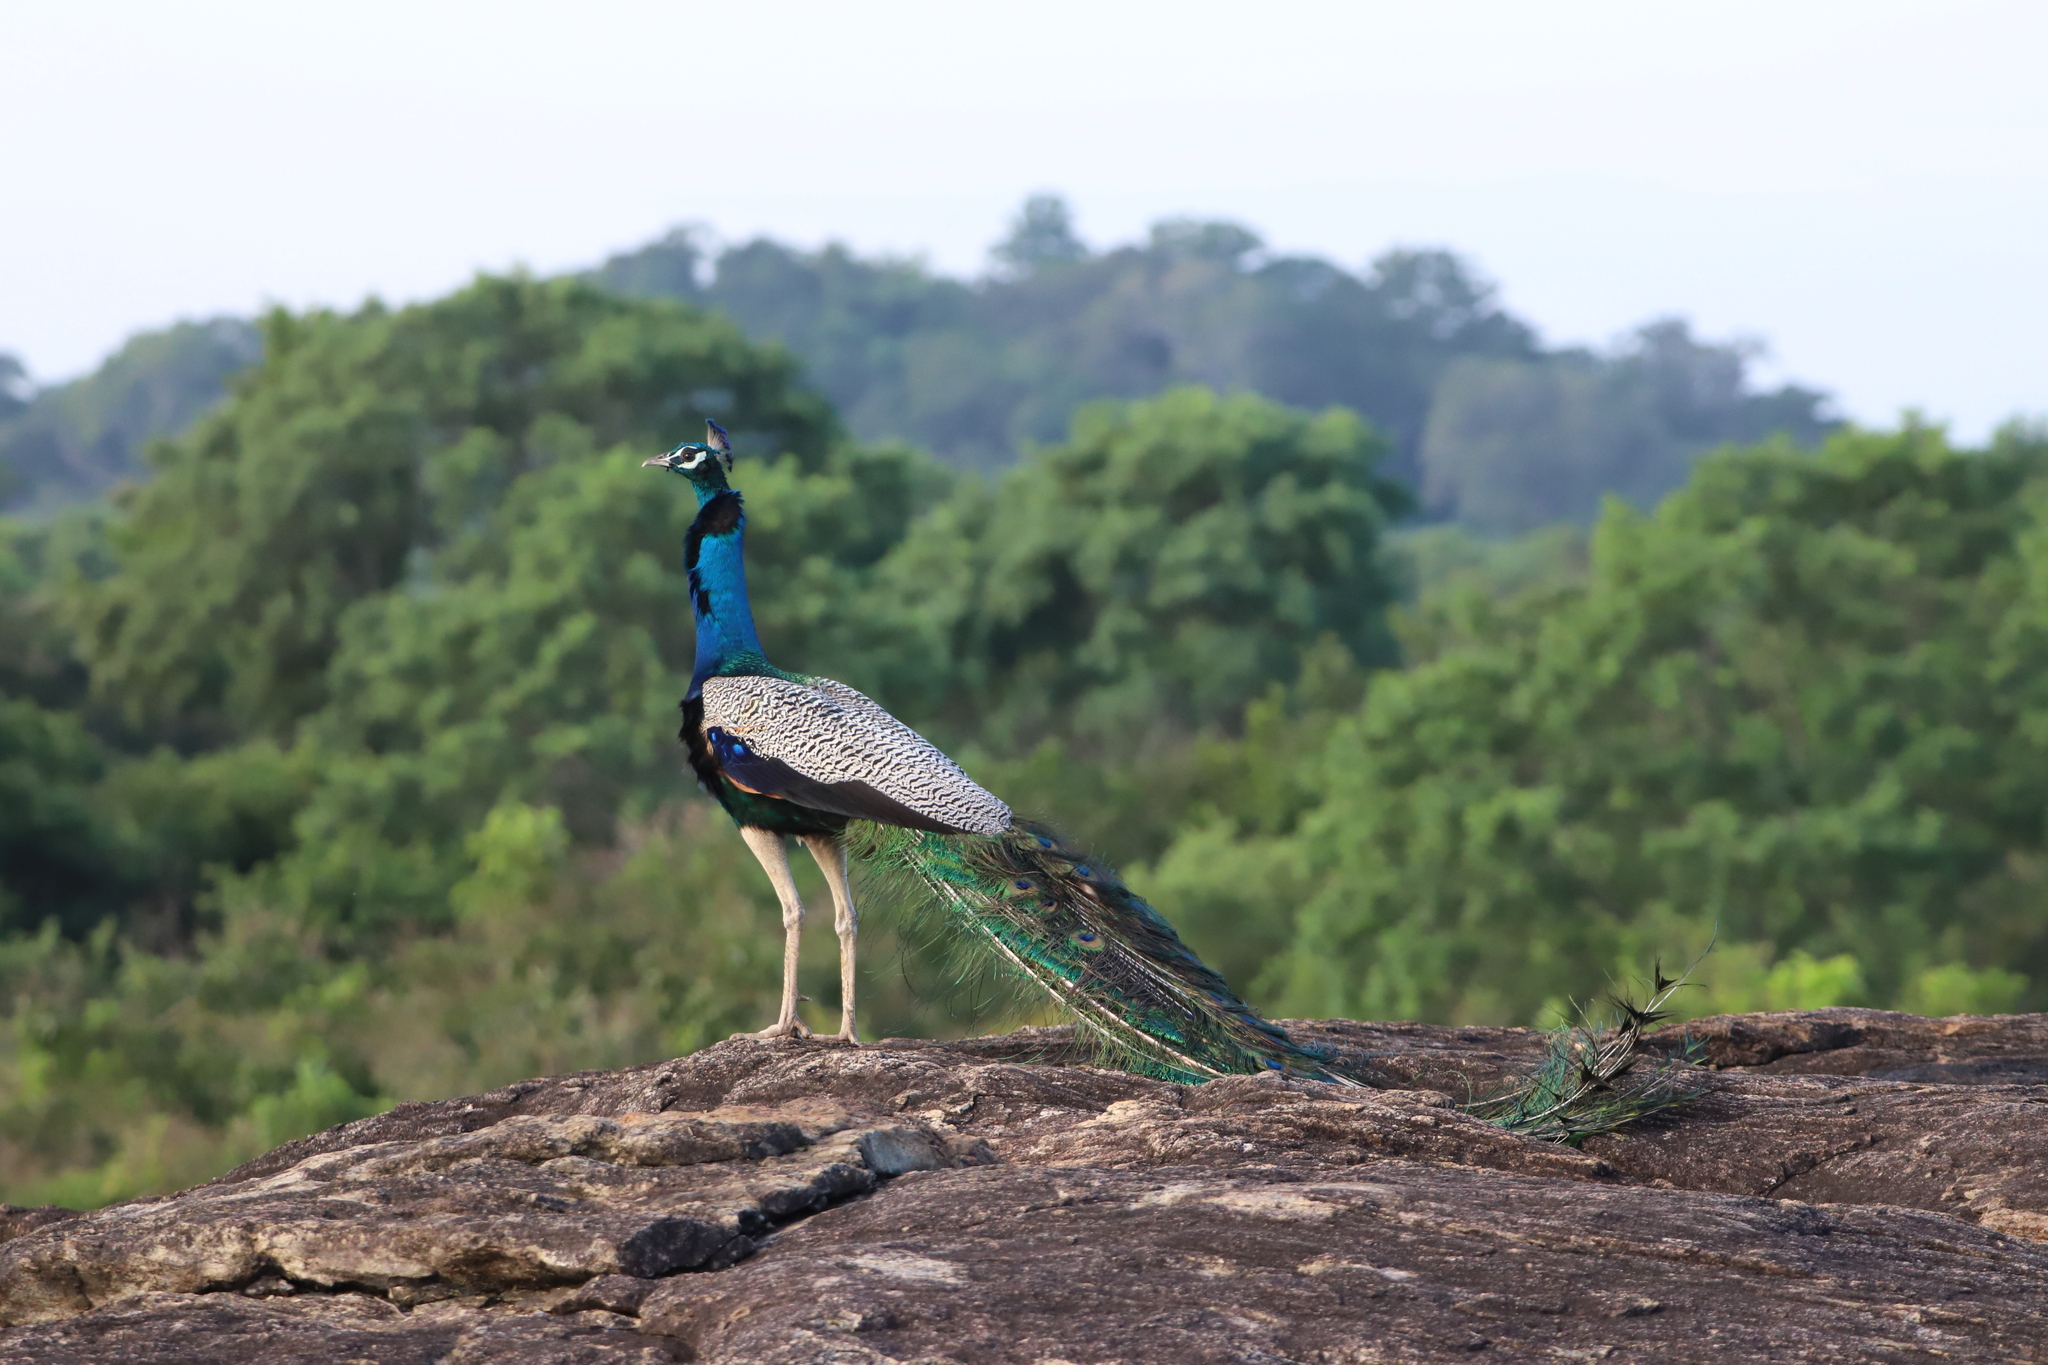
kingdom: Animalia
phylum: Chordata
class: Aves
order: Galliformes
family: Phasianidae
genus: Pavo
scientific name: Pavo cristatus
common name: Indian peafowl
